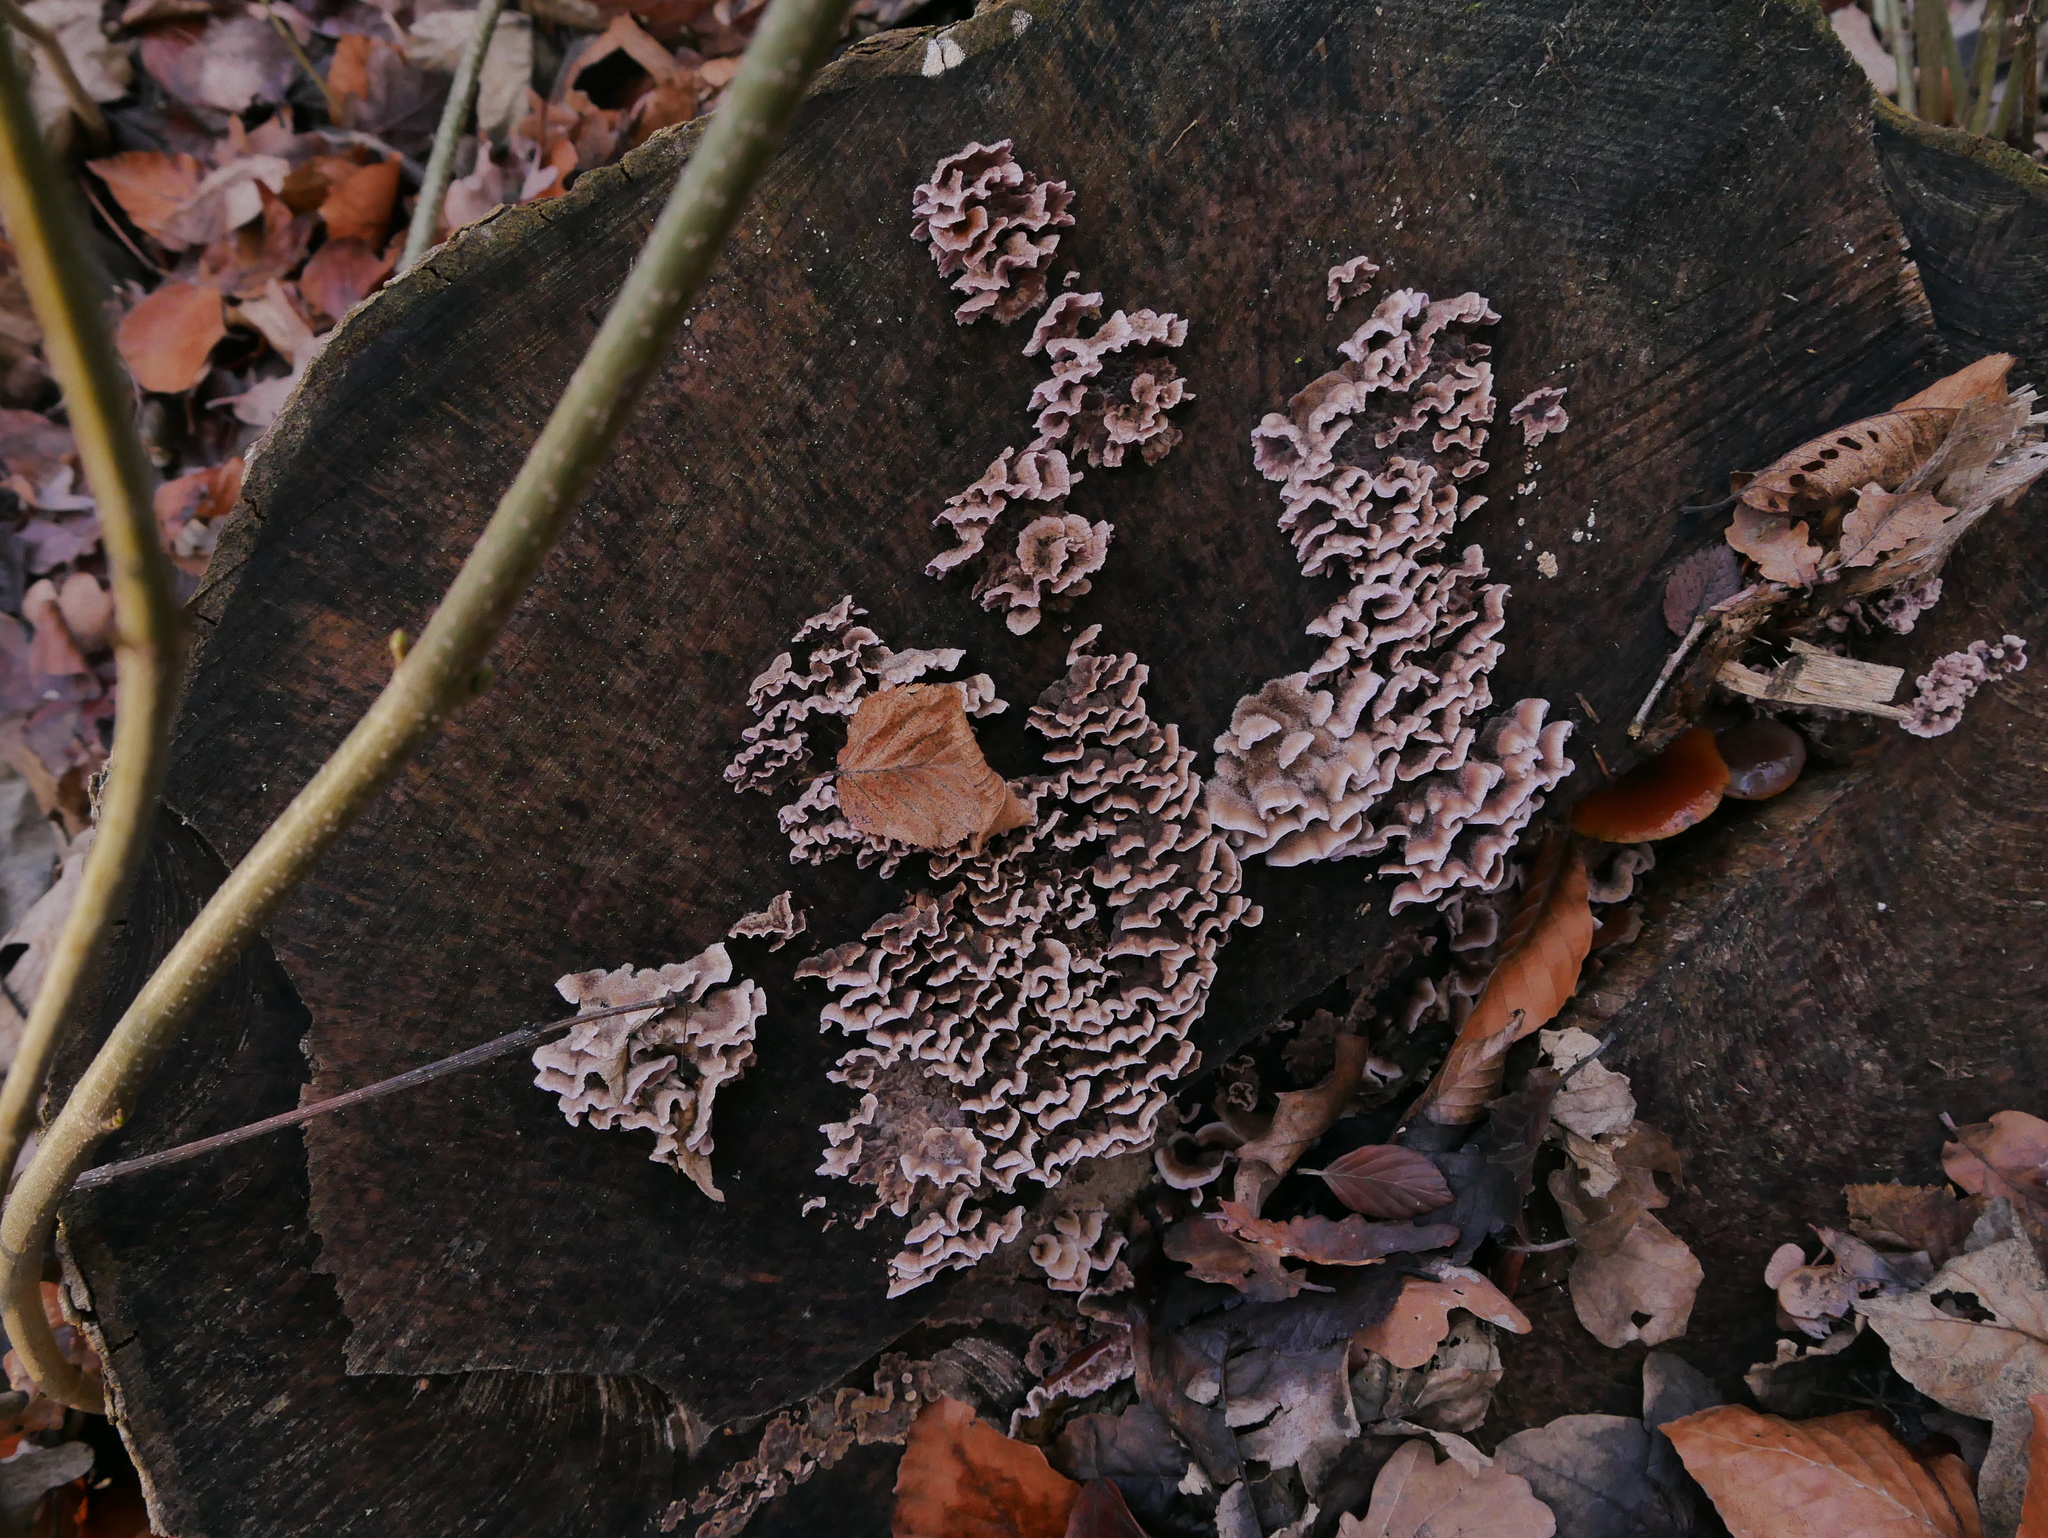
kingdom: Fungi
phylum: Basidiomycota
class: Agaricomycetes
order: Agaricales
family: Cyphellaceae
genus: Chondrostereum
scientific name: Chondrostereum purpureum
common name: Silver leaf disease
